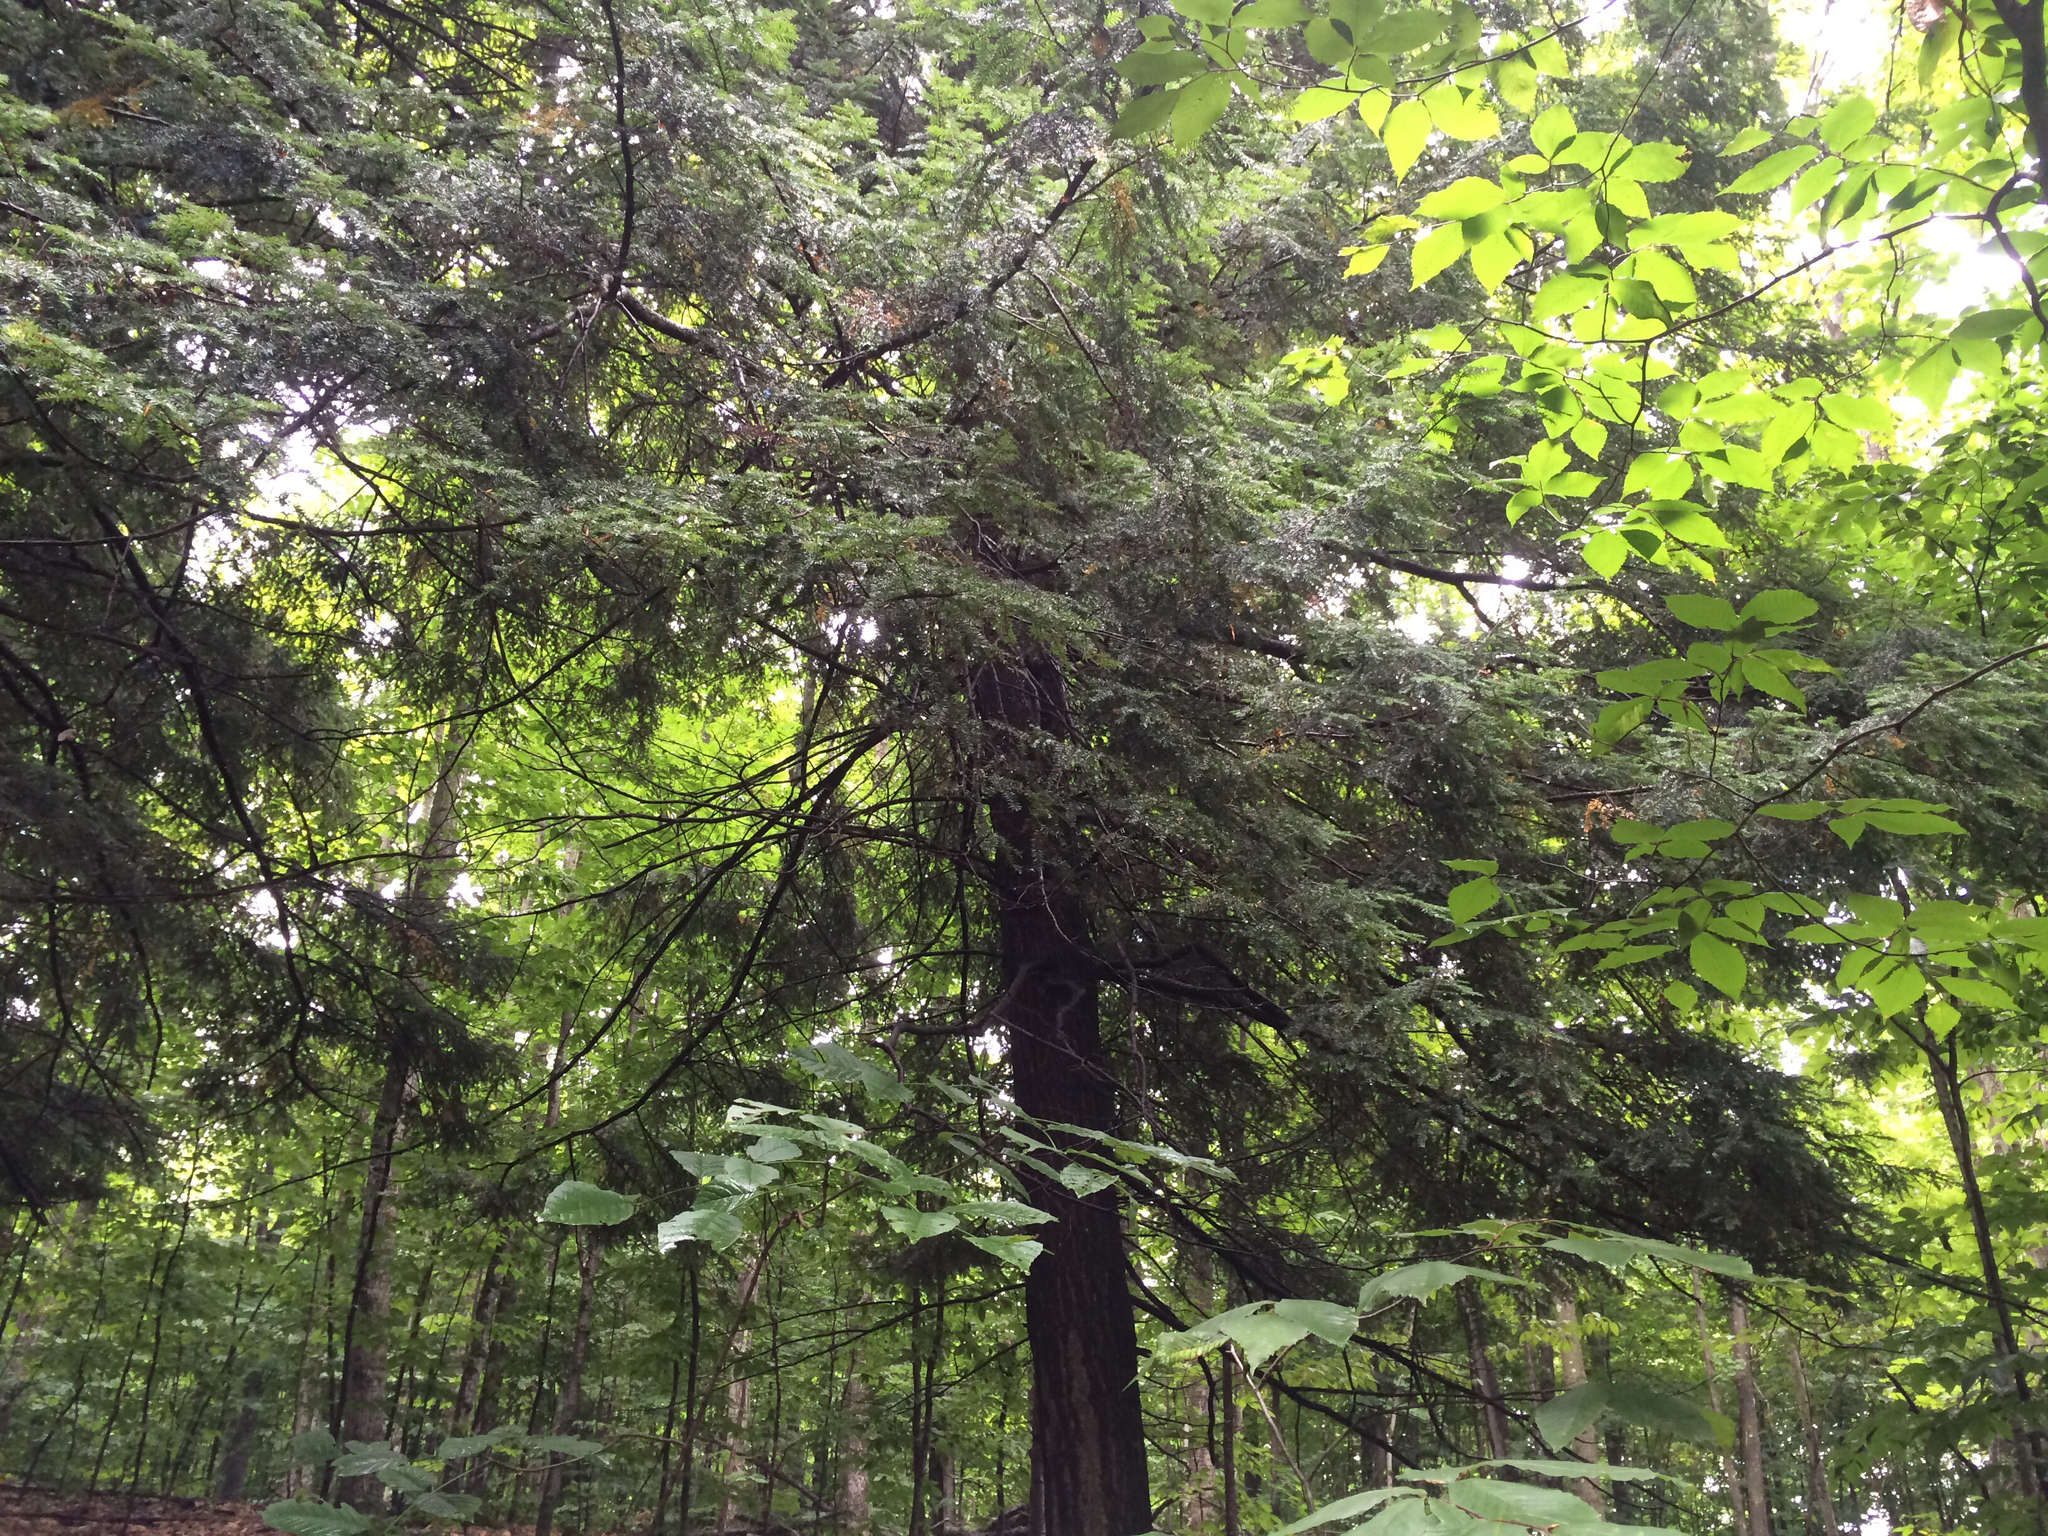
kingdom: Plantae
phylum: Tracheophyta
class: Pinopsida
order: Pinales
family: Pinaceae
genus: Tsuga
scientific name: Tsuga canadensis
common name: Eastern hemlock
